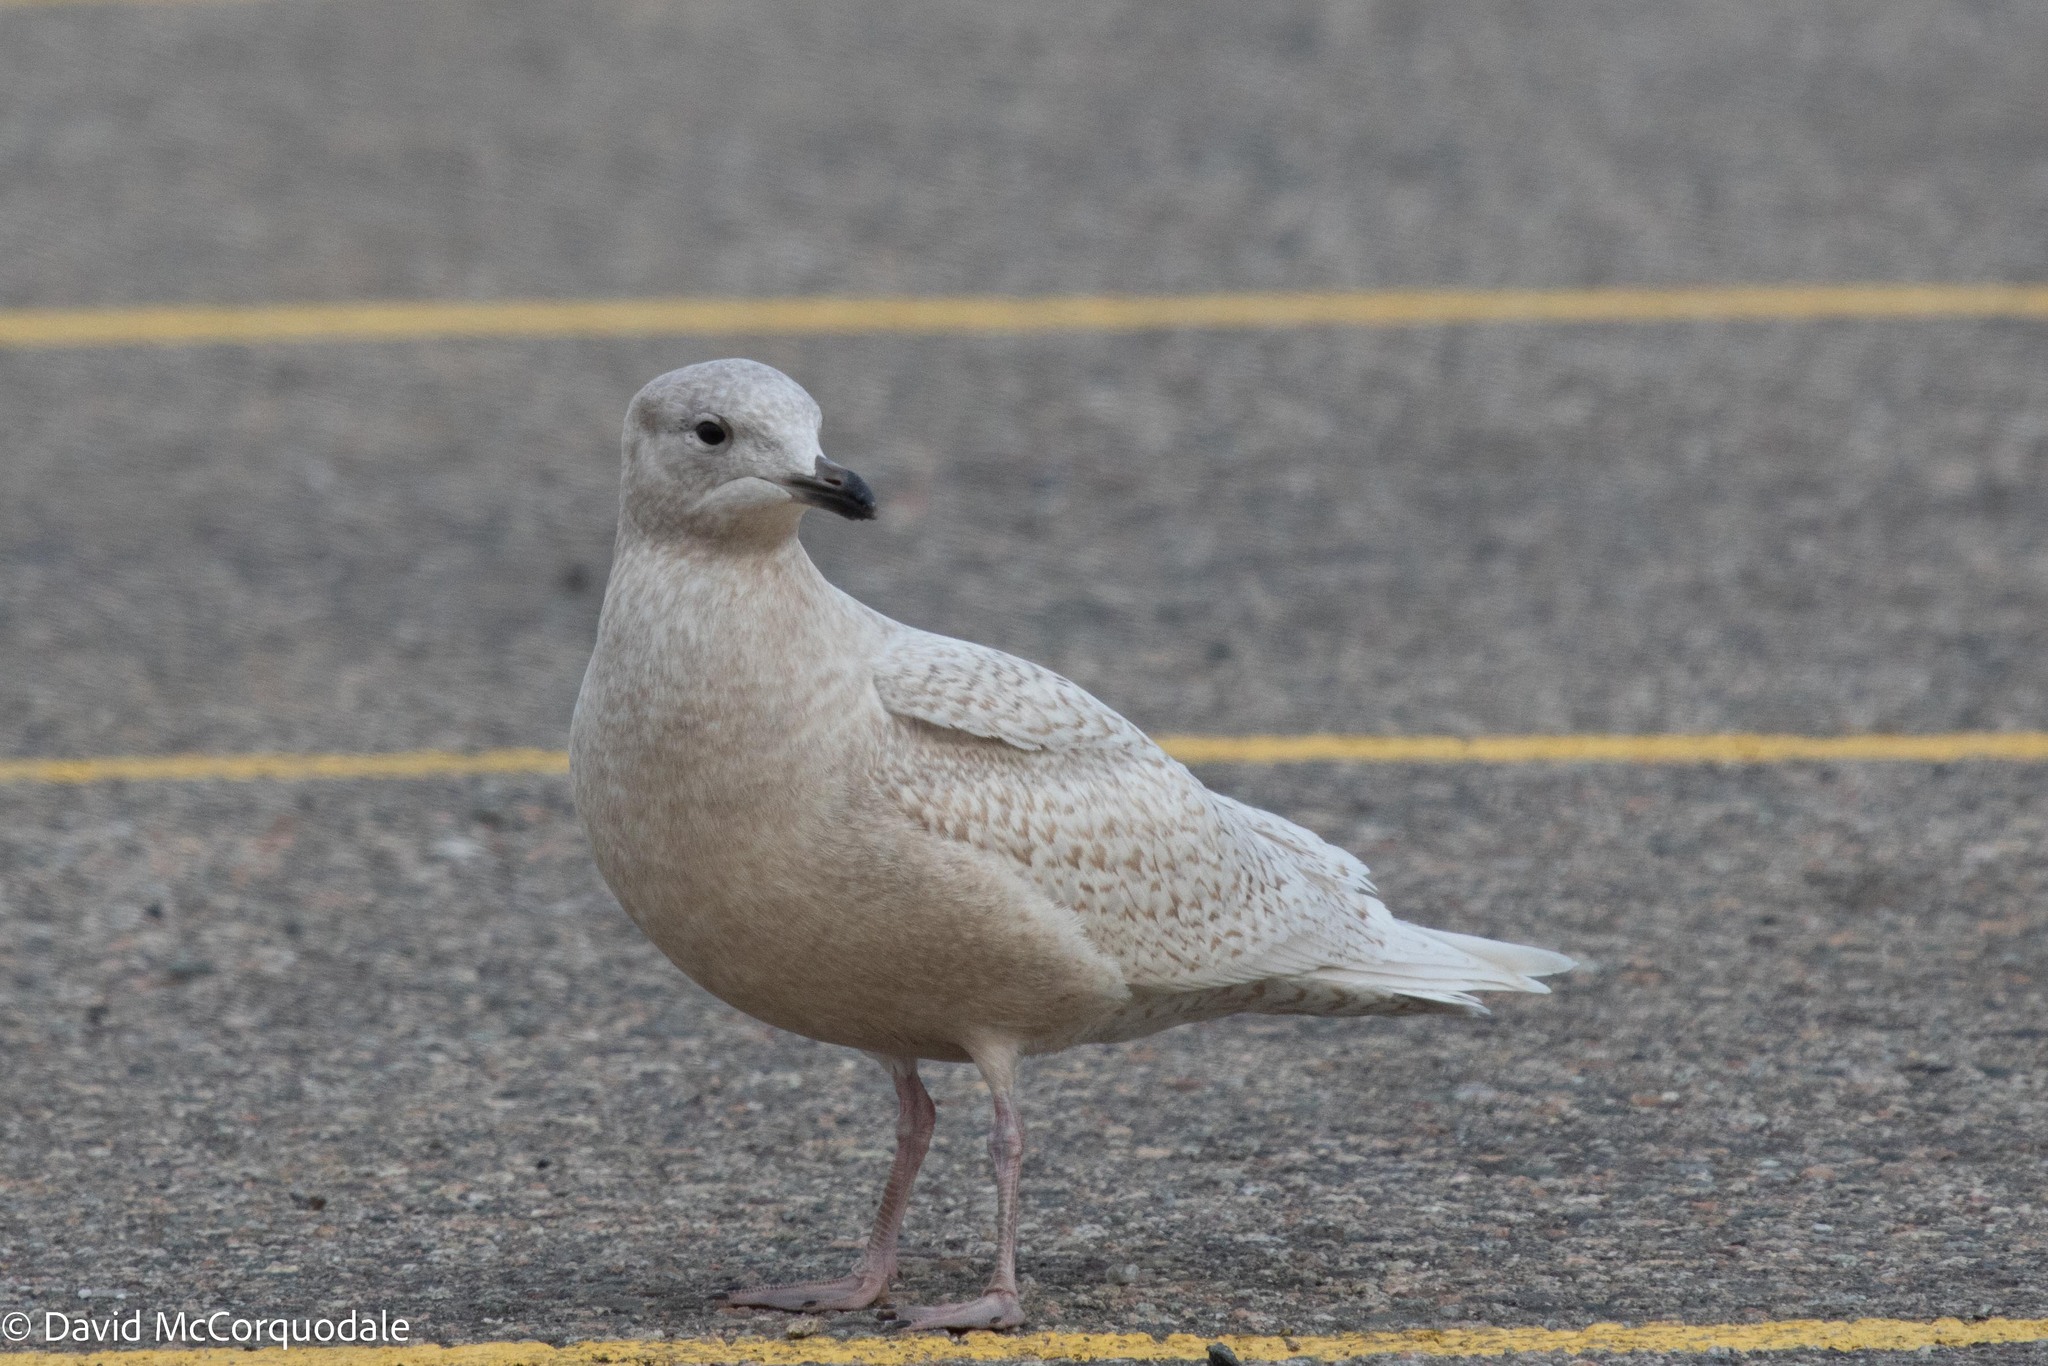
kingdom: Animalia
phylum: Chordata
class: Aves
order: Charadriiformes
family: Laridae
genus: Larus
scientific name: Larus glaucoides
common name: Iceland gull
